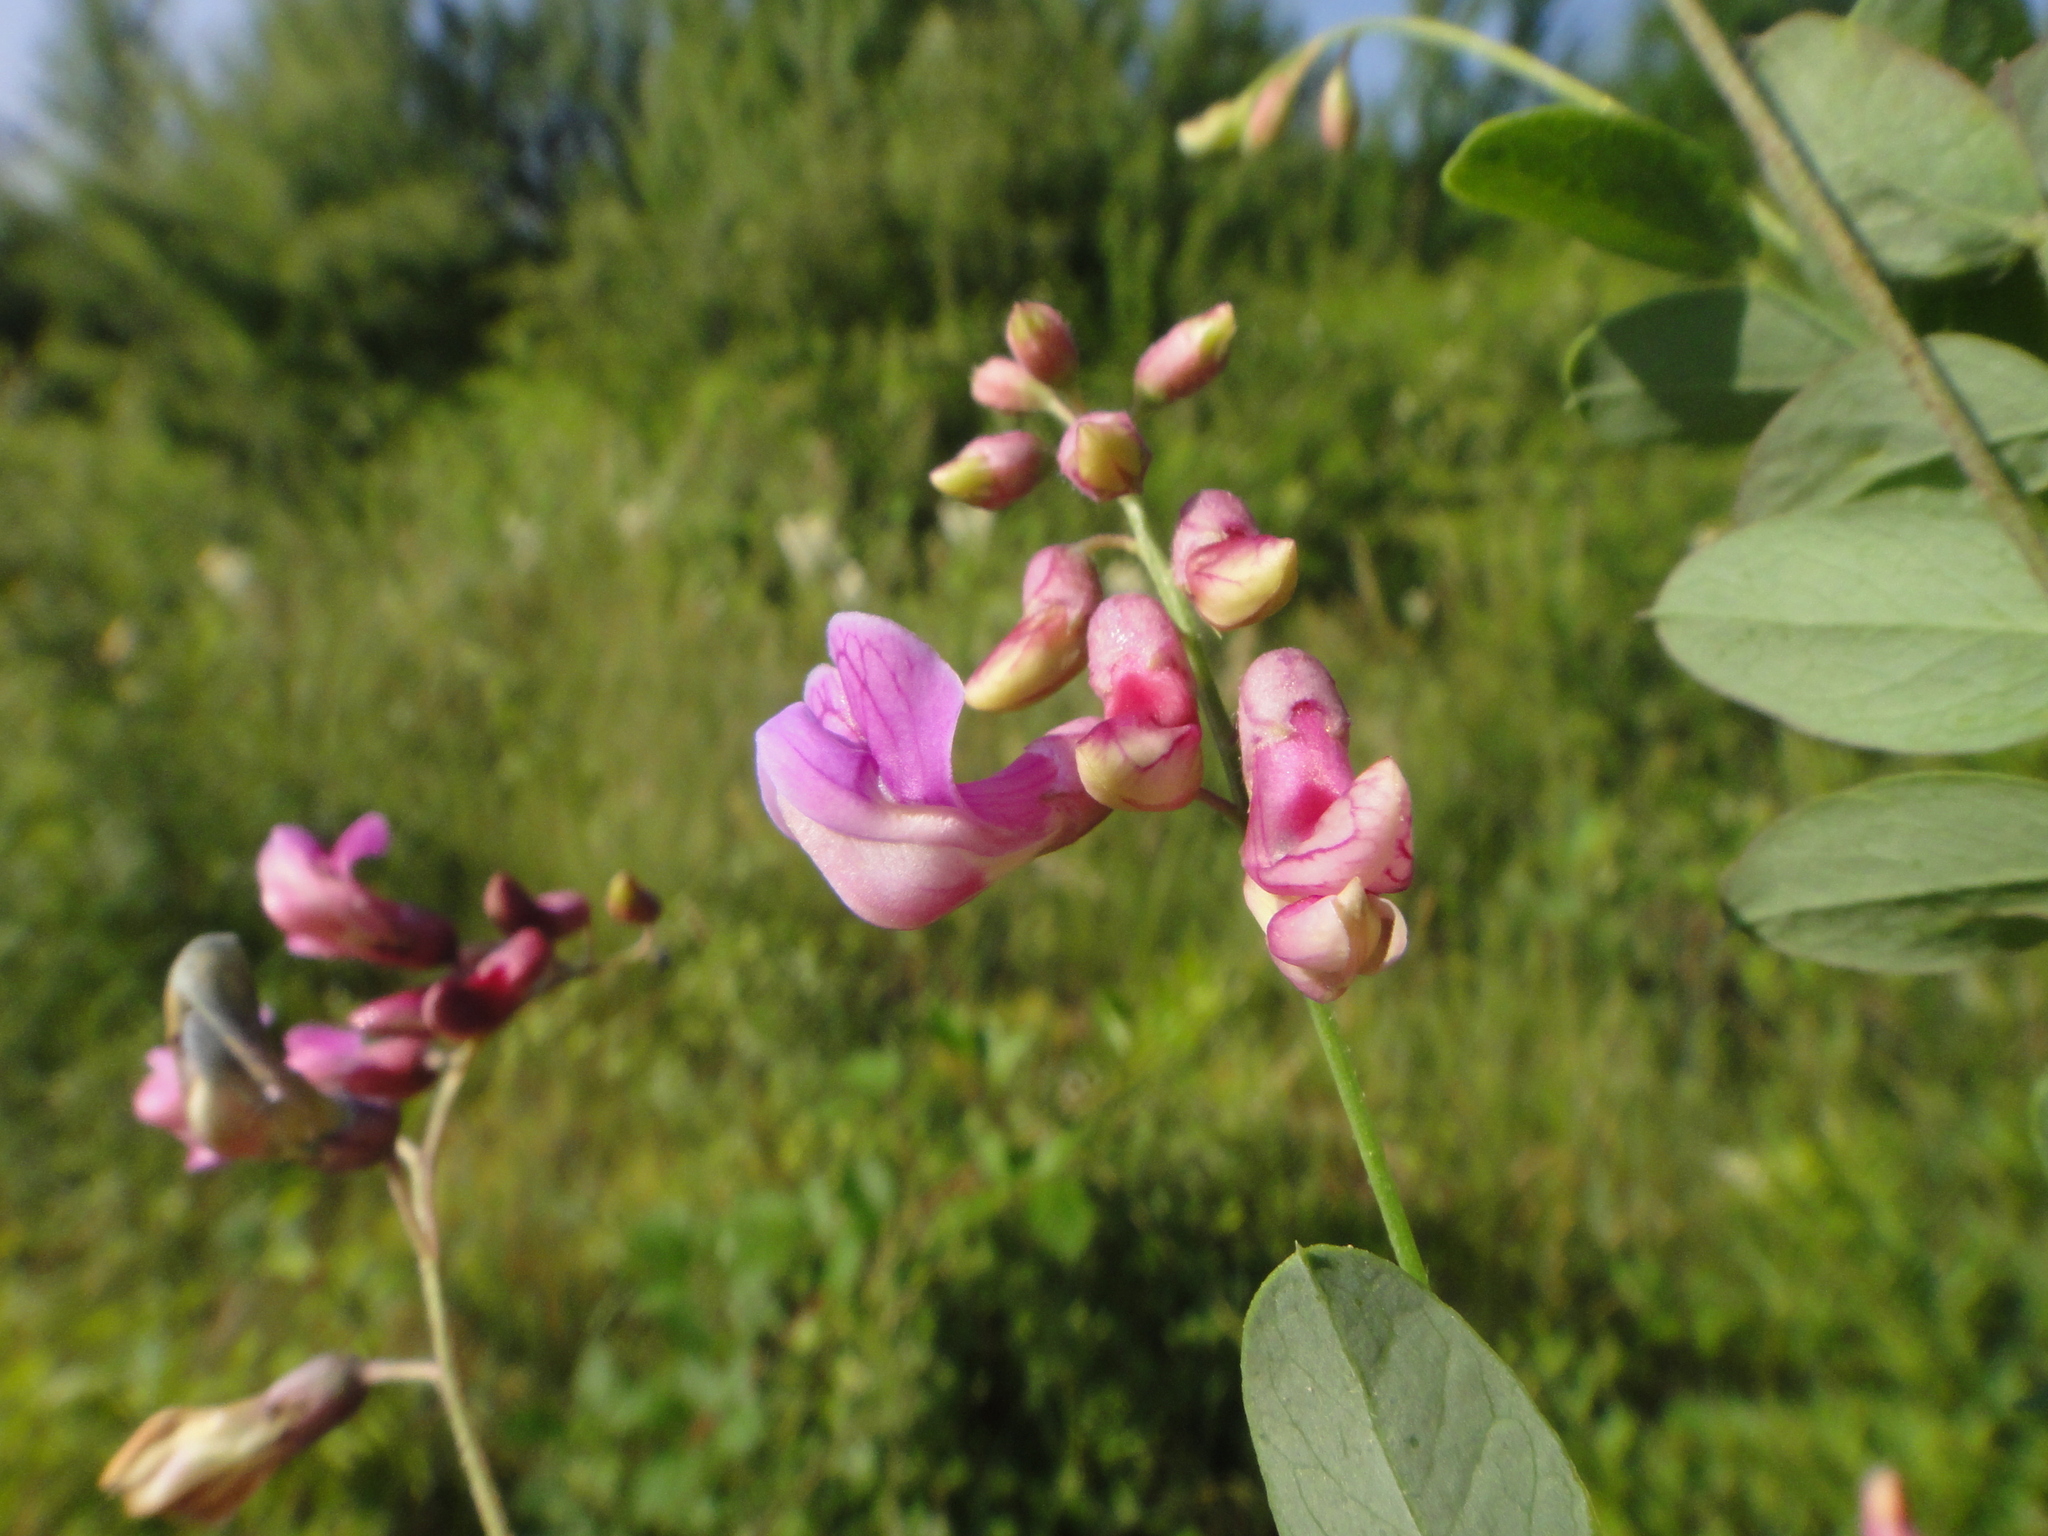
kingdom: Plantae
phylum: Tracheophyta
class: Magnoliopsida
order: Fabales
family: Fabaceae
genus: Lathyrus
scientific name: Lathyrus niger
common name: Black pea
